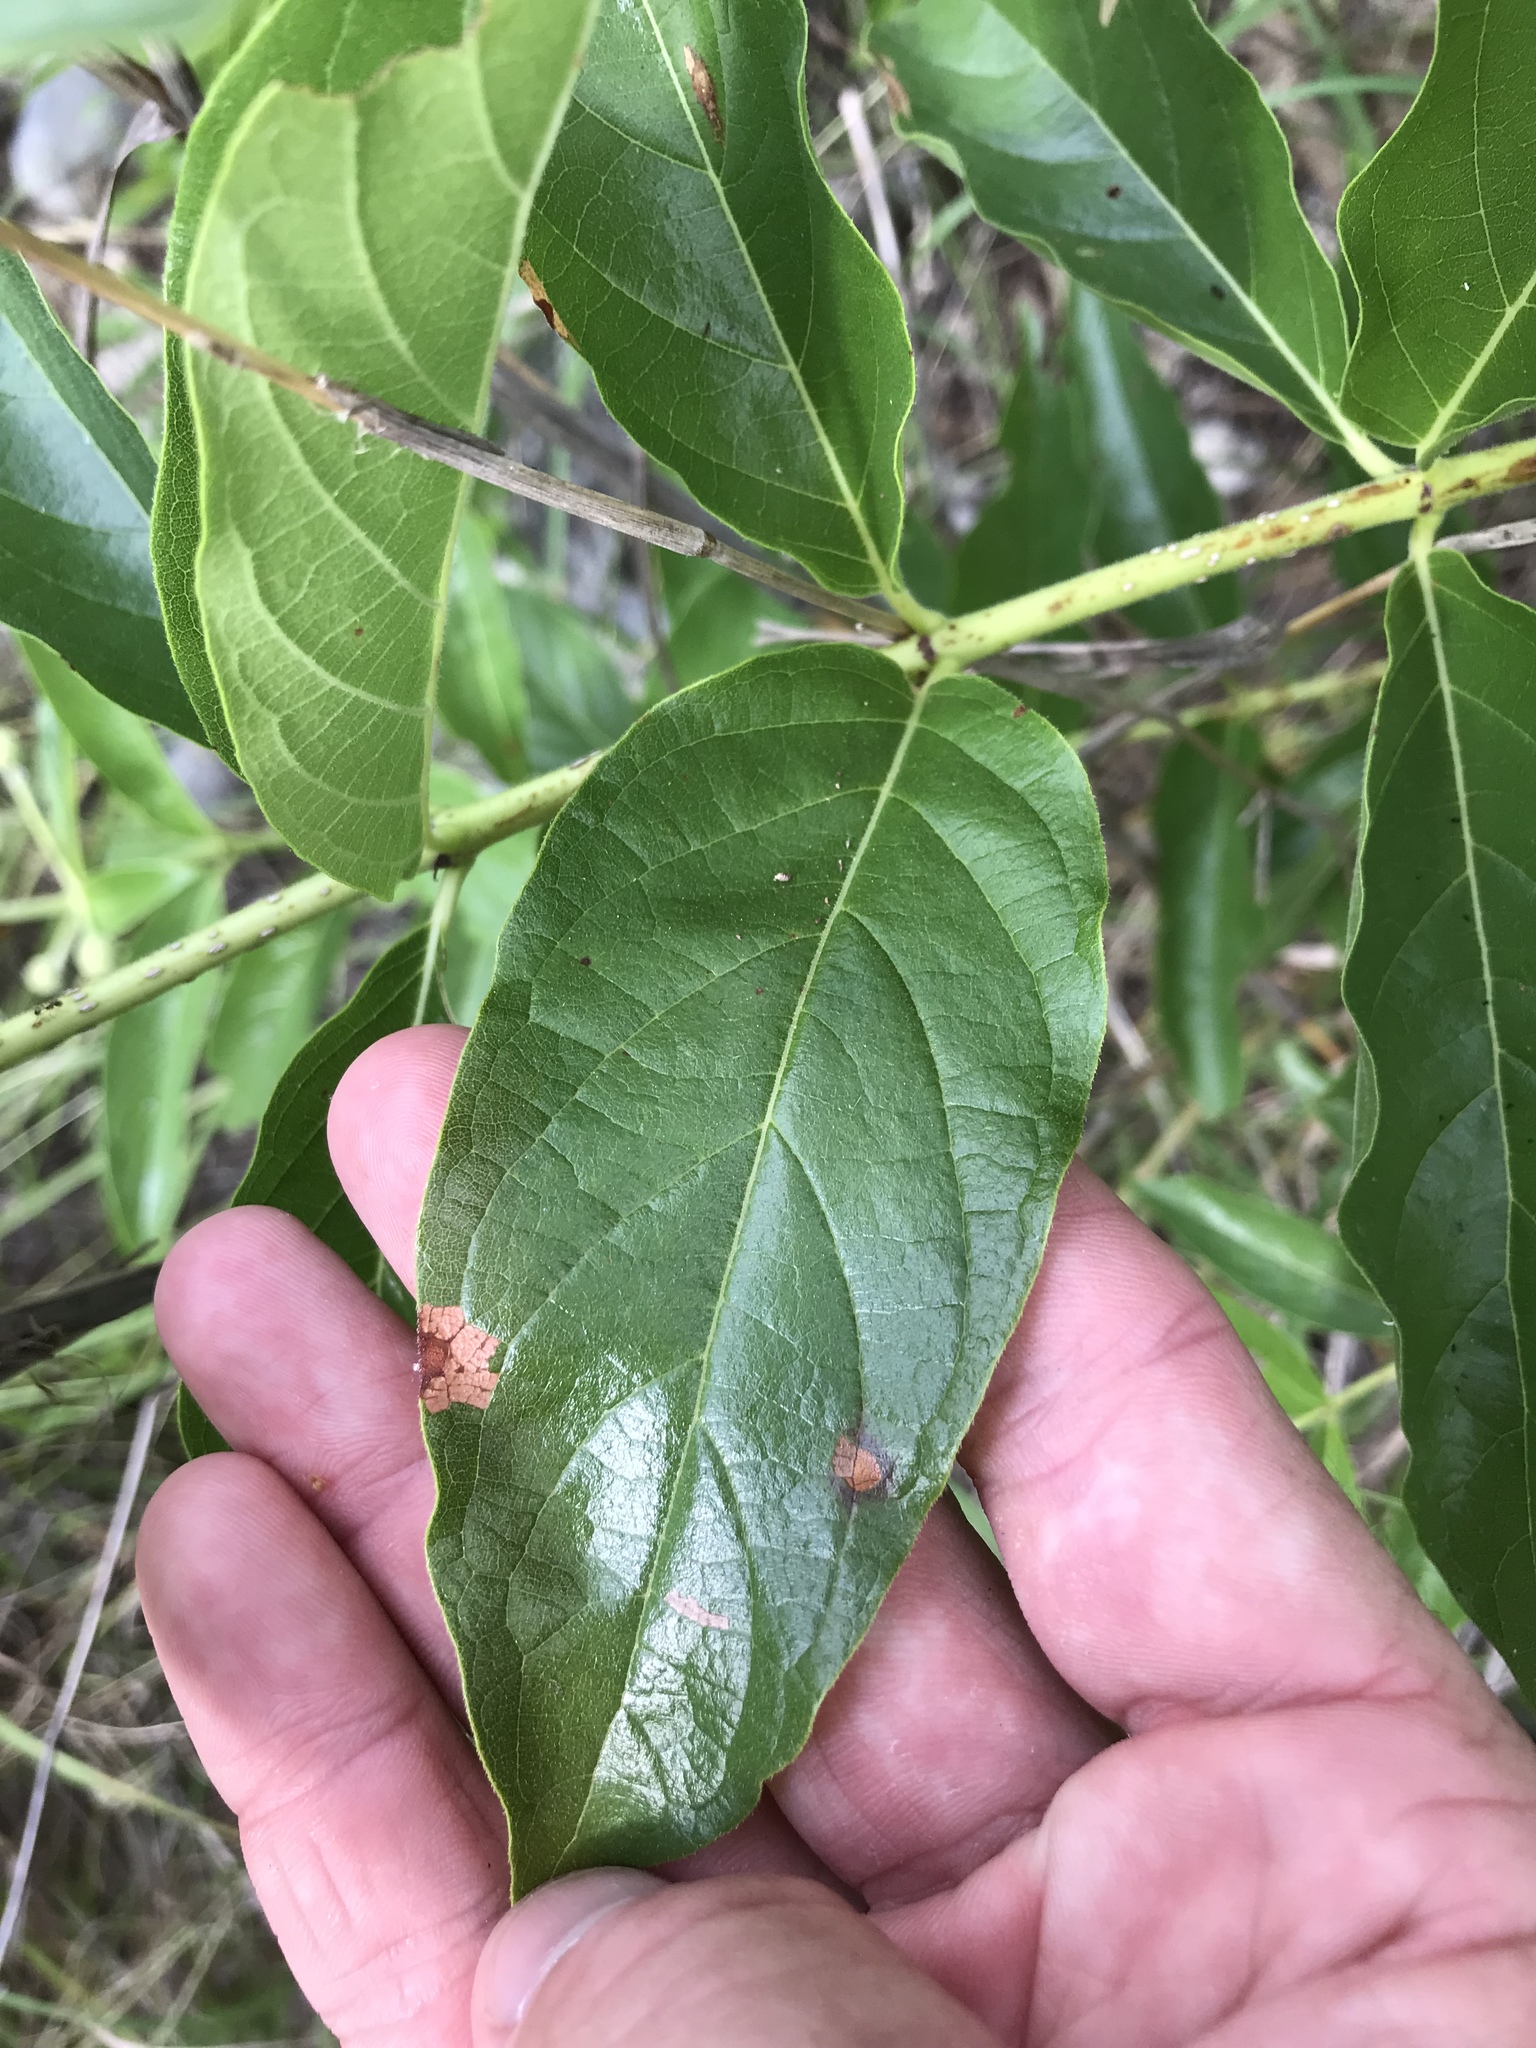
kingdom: Plantae
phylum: Tracheophyta
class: Magnoliopsida
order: Gentianales
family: Rubiaceae
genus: Cephalanthus
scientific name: Cephalanthus occidentalis
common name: Button-willow
